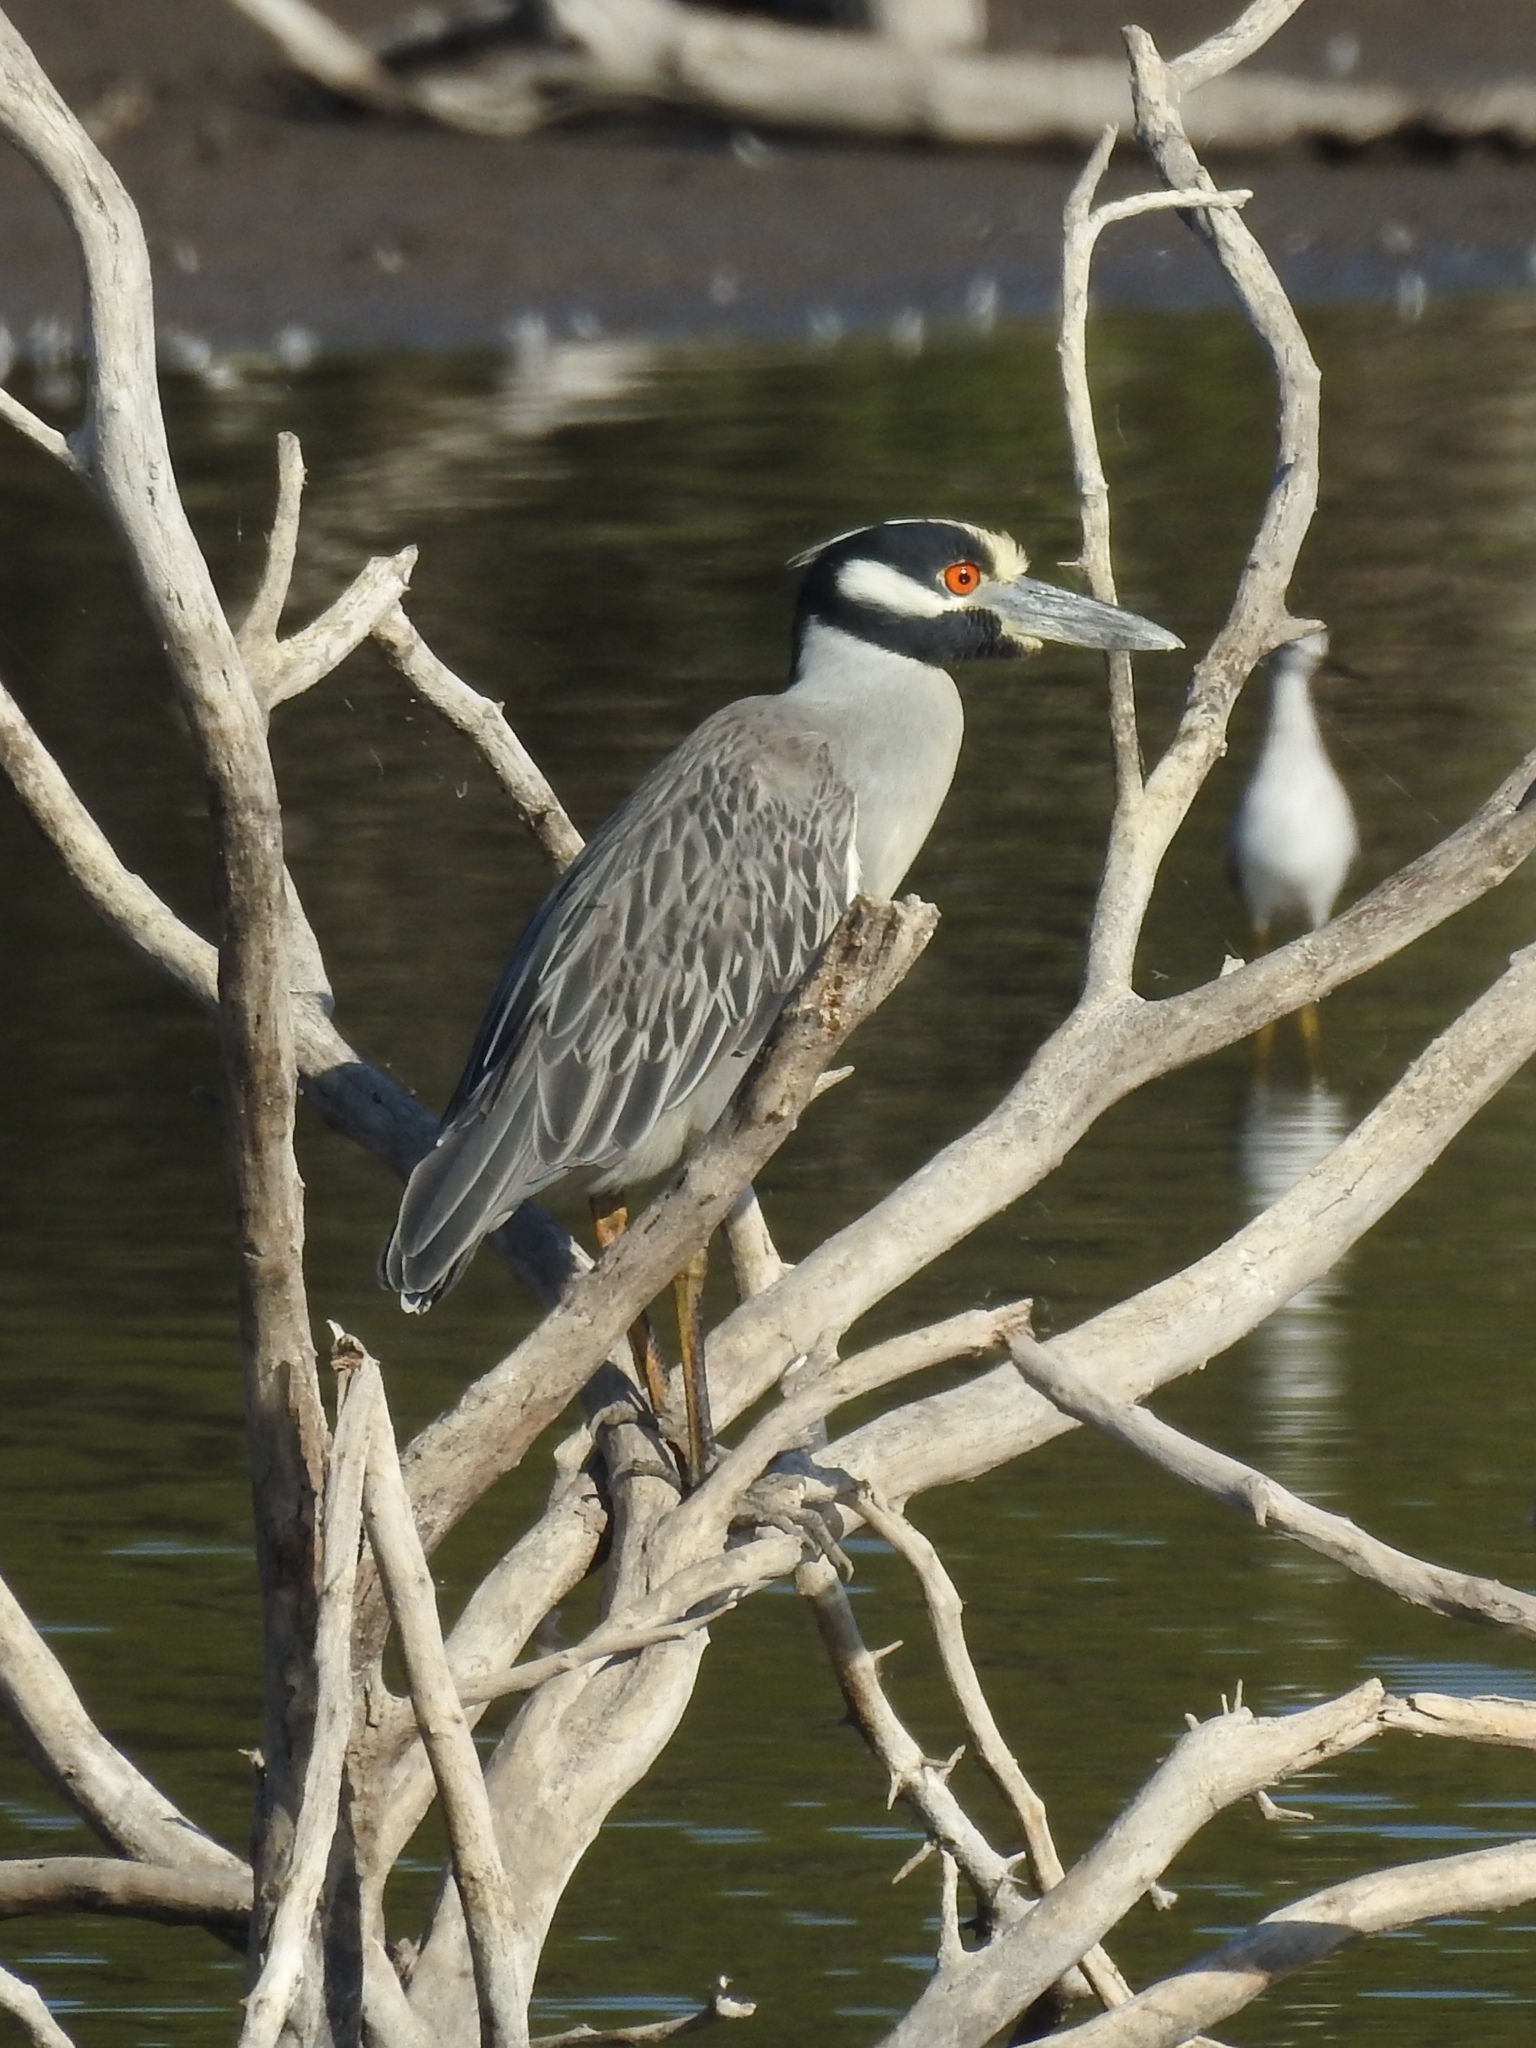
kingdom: Animalia
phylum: Chordata
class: Aves
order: Pelecaniformes
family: Ardeidae
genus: Nyctanassa
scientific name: Nyctanassa violacea
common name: Yellow-crowned night heron
